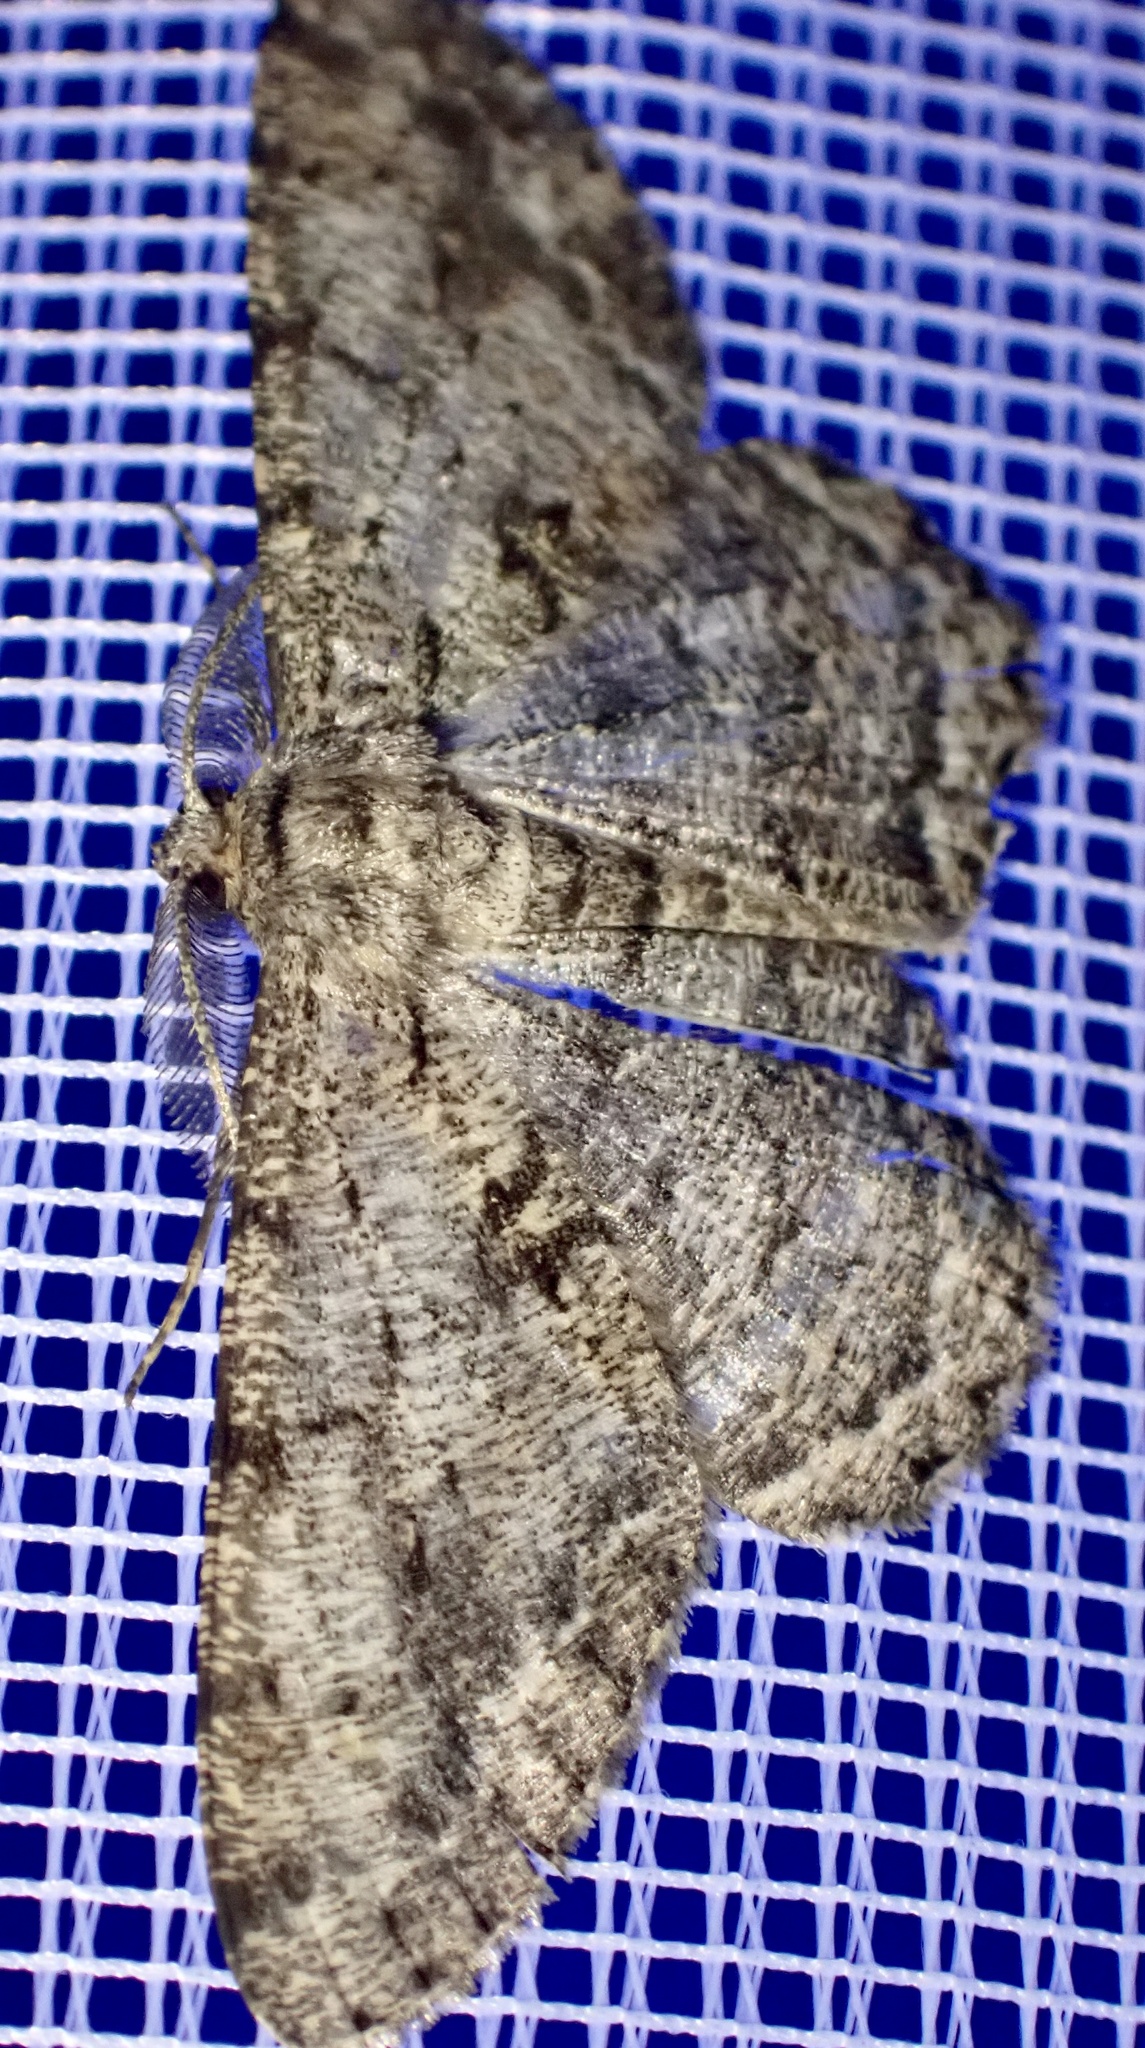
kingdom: Animalia
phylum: Arthropoda
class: Insecta
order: Lepidoptera
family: Geometridae
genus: Peribatodes
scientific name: Peribatodes rhomboidaria
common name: Willow beauty
